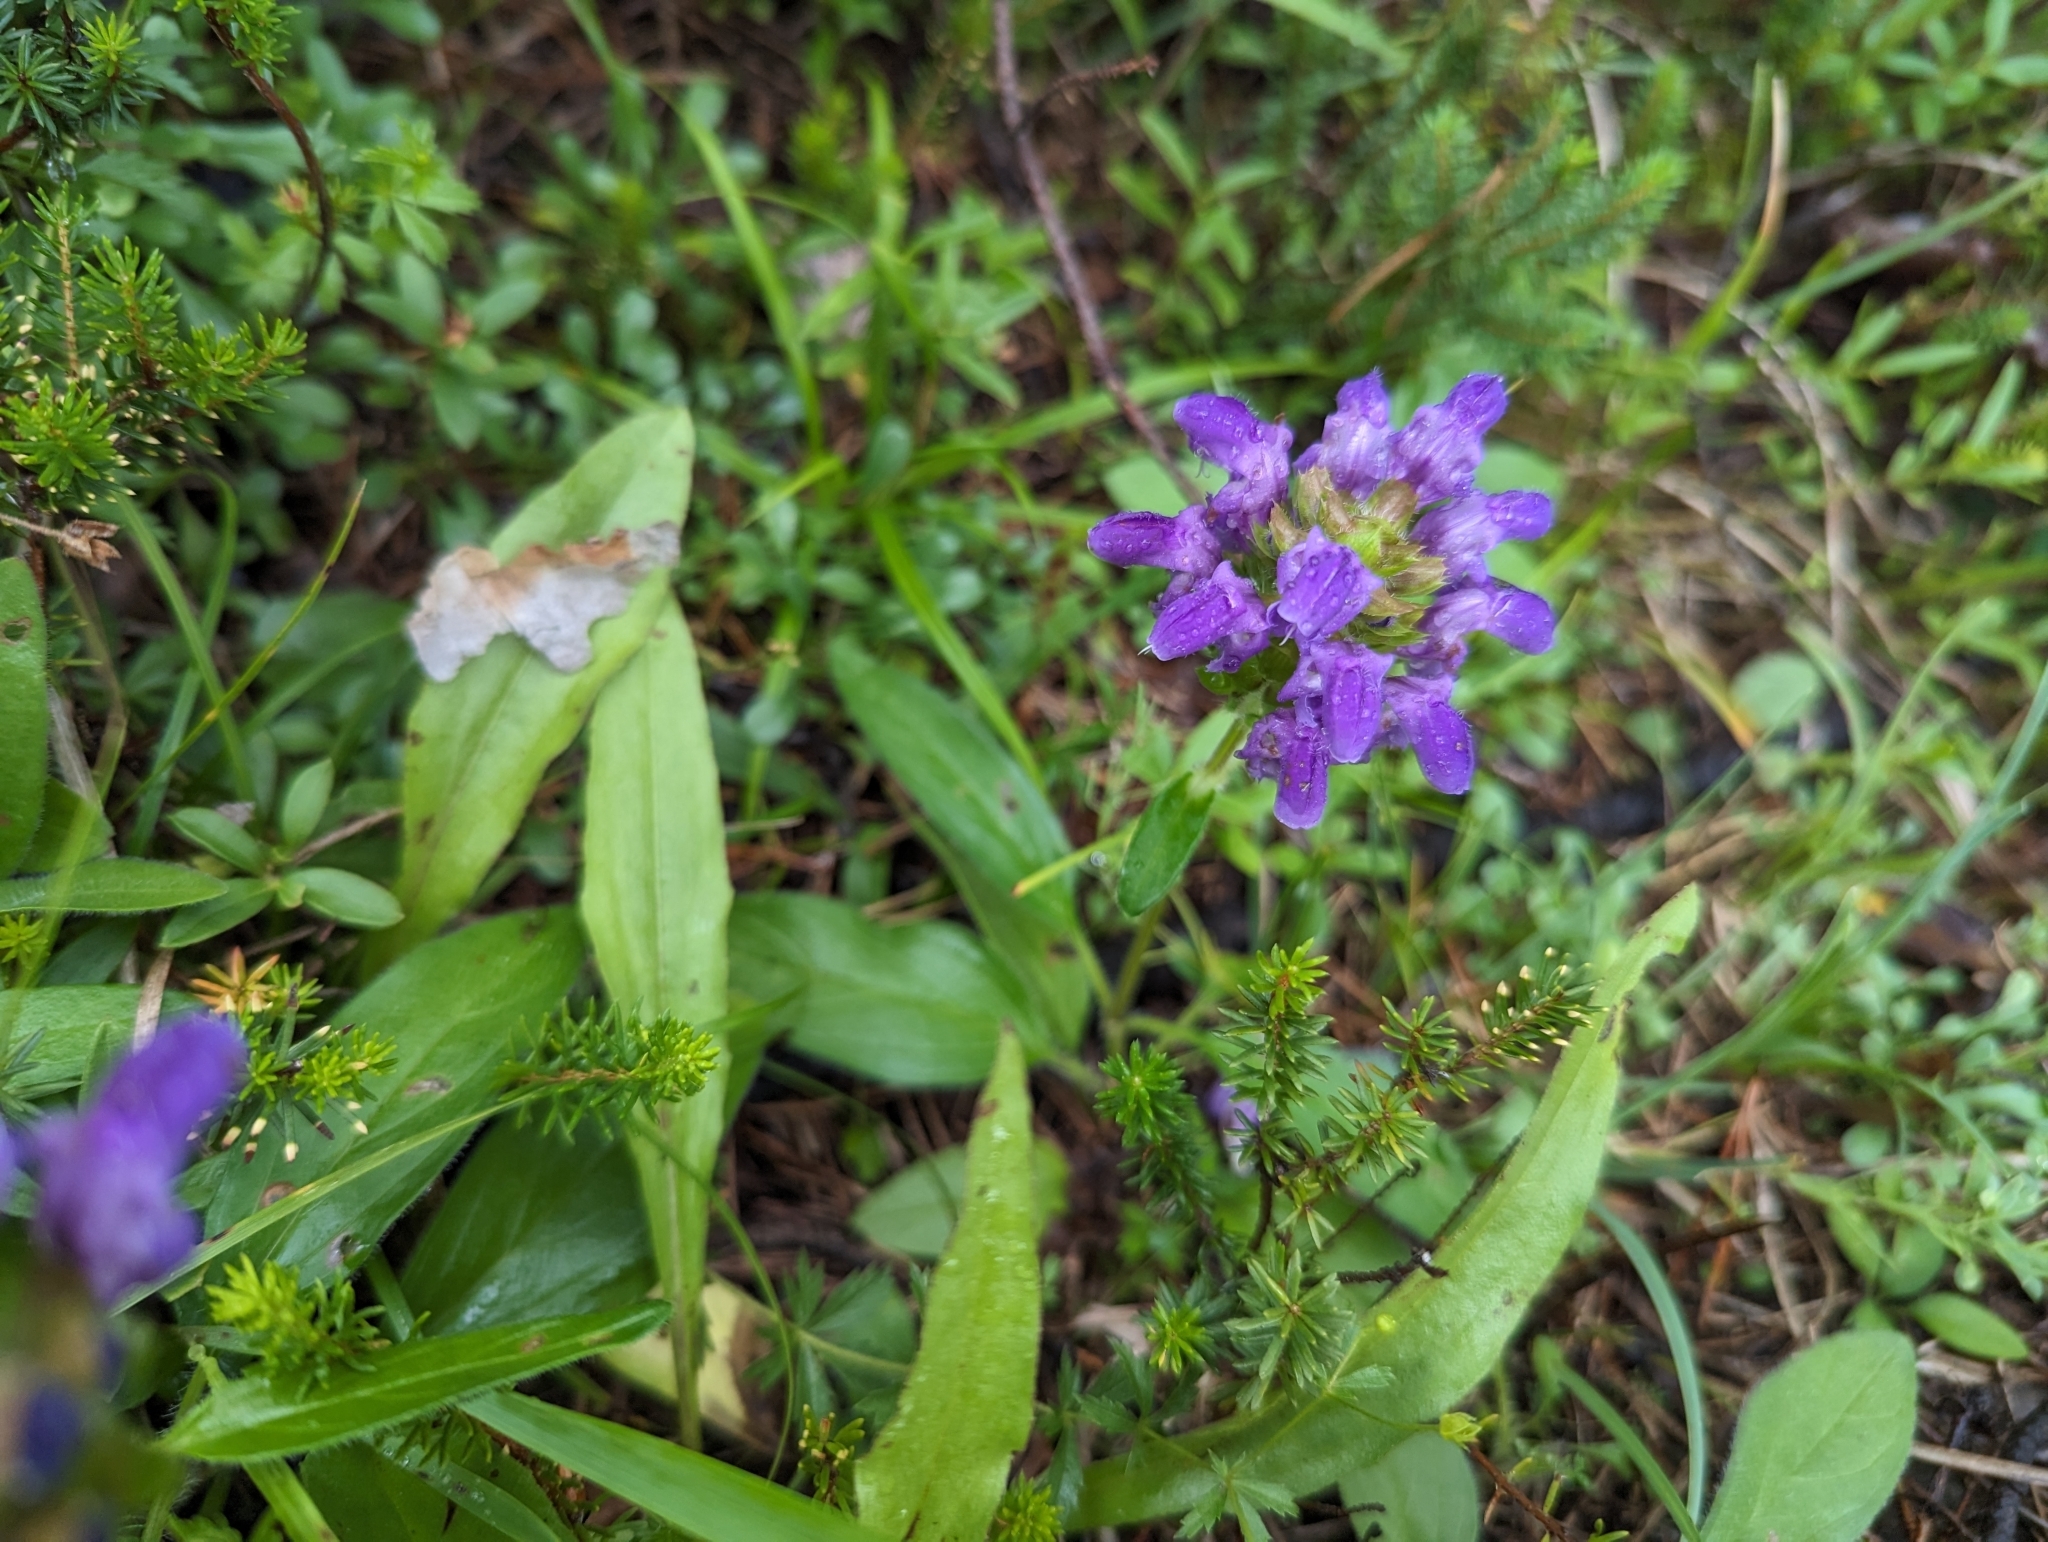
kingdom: Plantae
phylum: Tracheophyta
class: Magnoliopsida
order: Lamiales
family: Lamiaceae
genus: Prunella
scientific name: Prunella grandiflora
